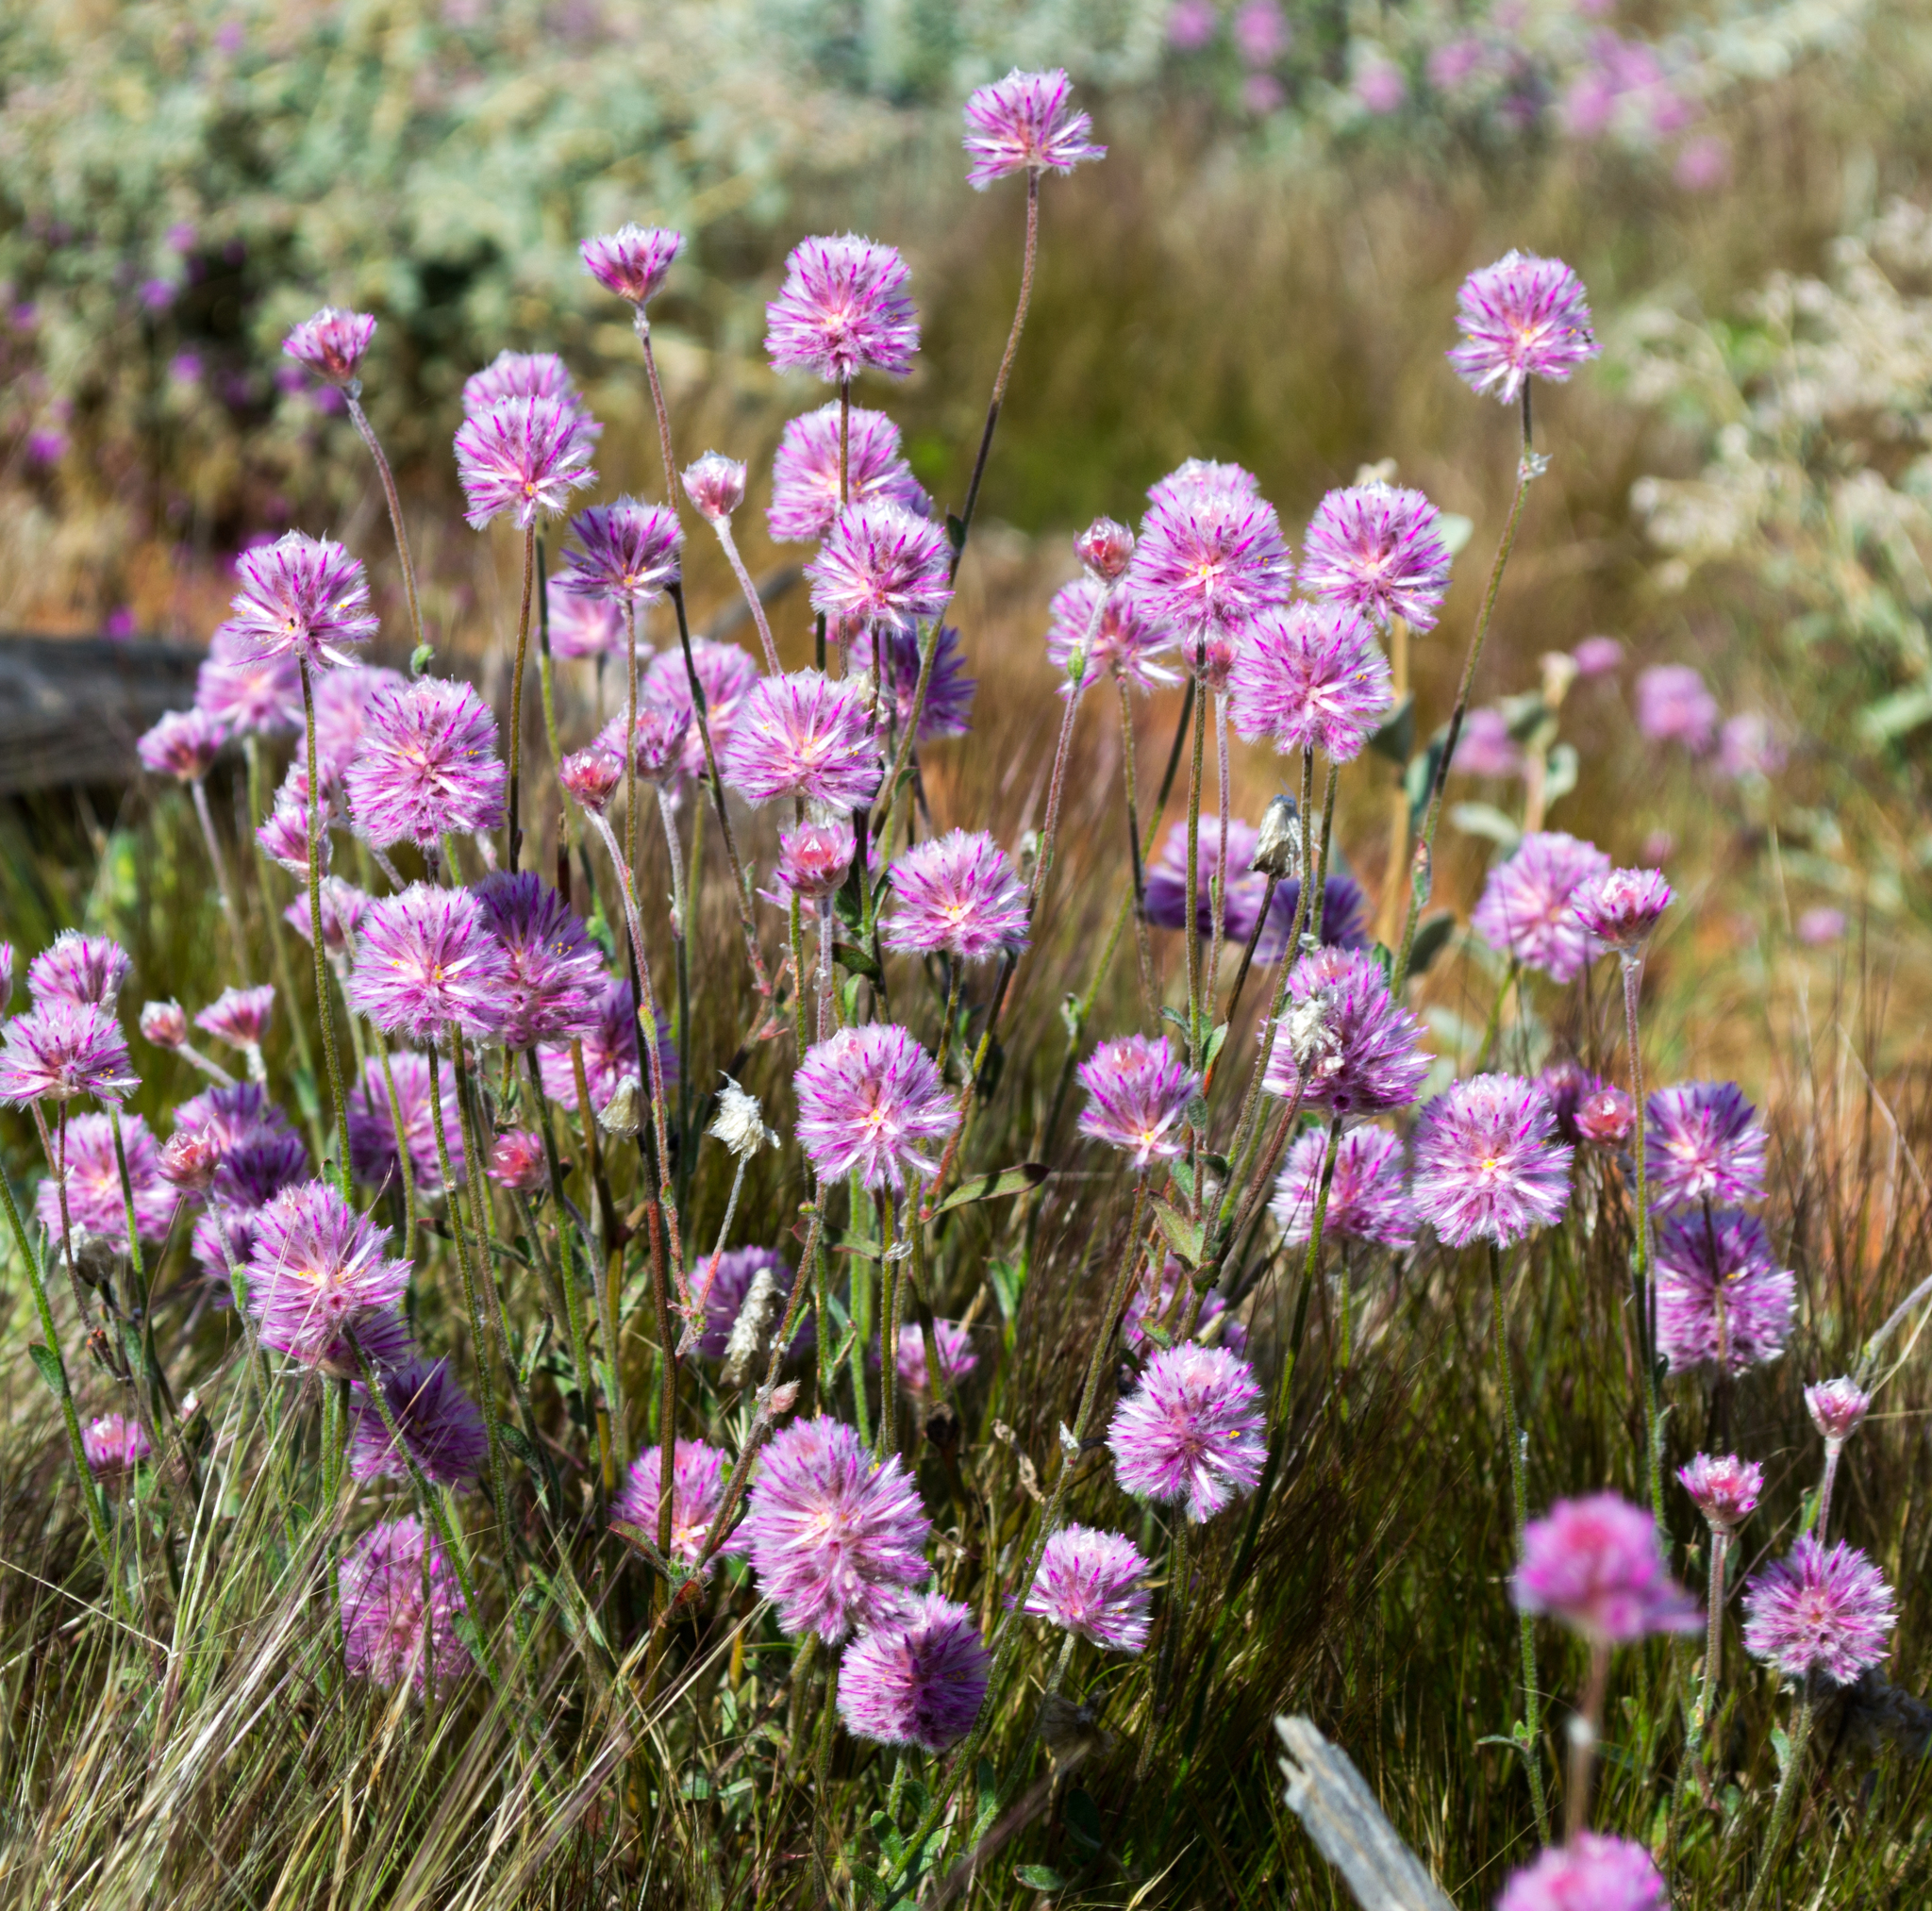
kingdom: Plantae
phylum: Tracheophyta
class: Magnoliopsida
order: Caryophyllales
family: Amaranthaceae
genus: Ptilotus
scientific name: Ptilotus helipteroides
